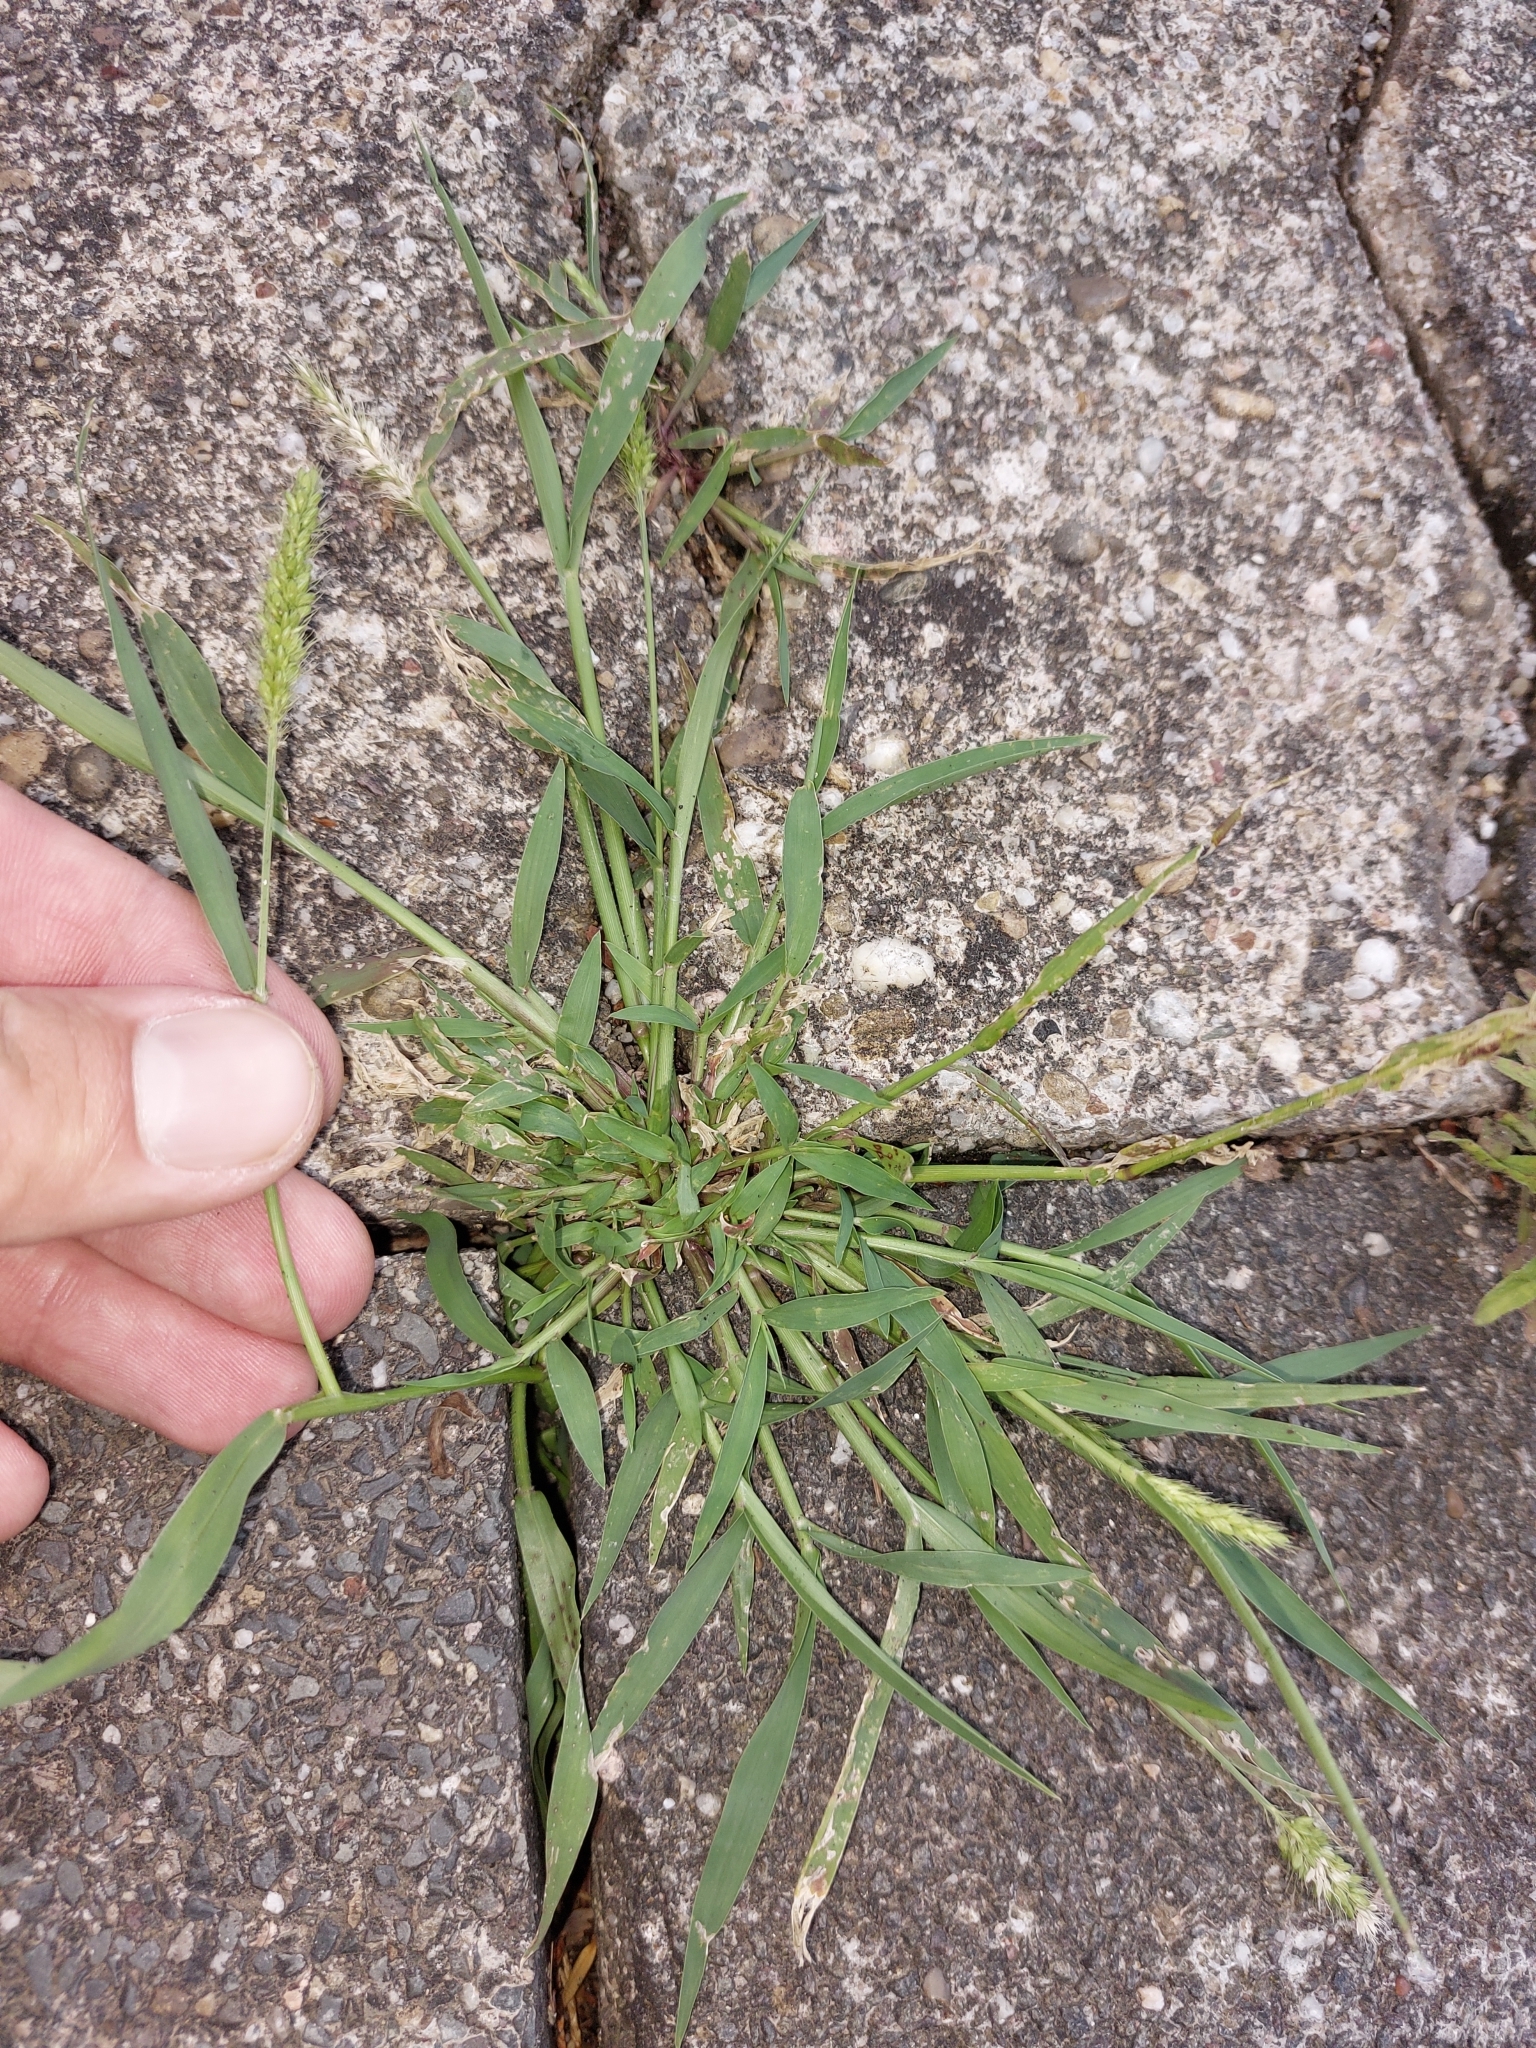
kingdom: Plantae
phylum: Tracheophyta
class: Liliopsida
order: Poales
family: Poaceae
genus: Setaria
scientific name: Setaria viridis
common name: Green bristlegrass
